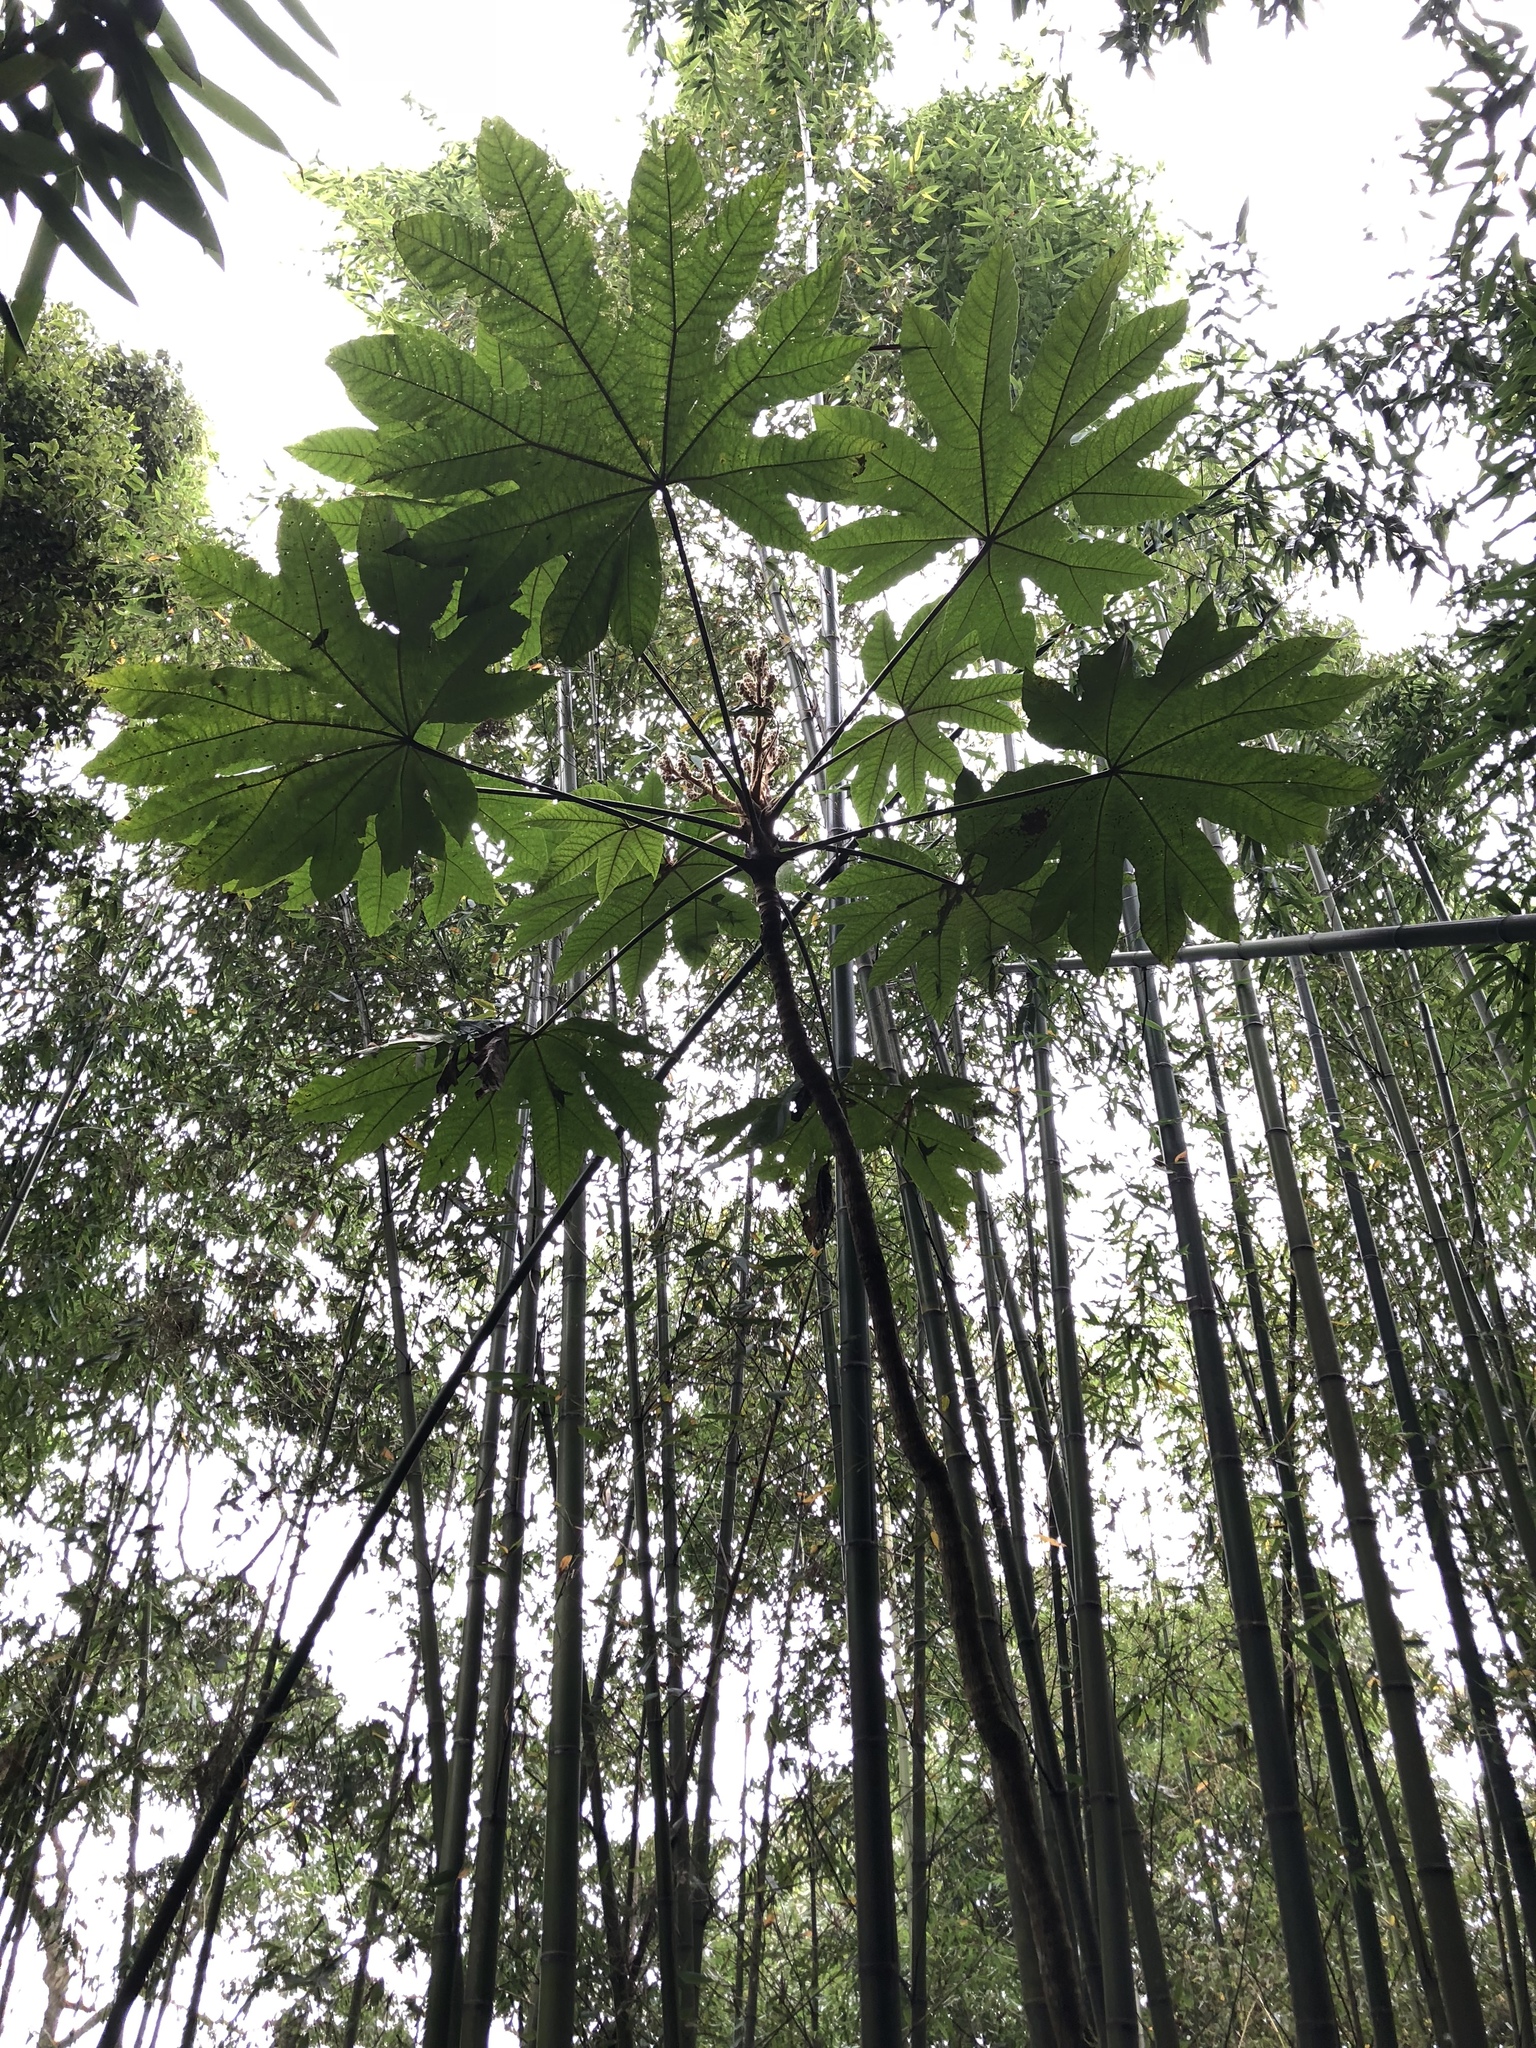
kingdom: Plantae
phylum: Tracheophyta
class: Magnoliopsida
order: Apiales
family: Araliaceae
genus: Tetrapanax
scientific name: Tetrapanax papyrifer
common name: Rice-paper plant
